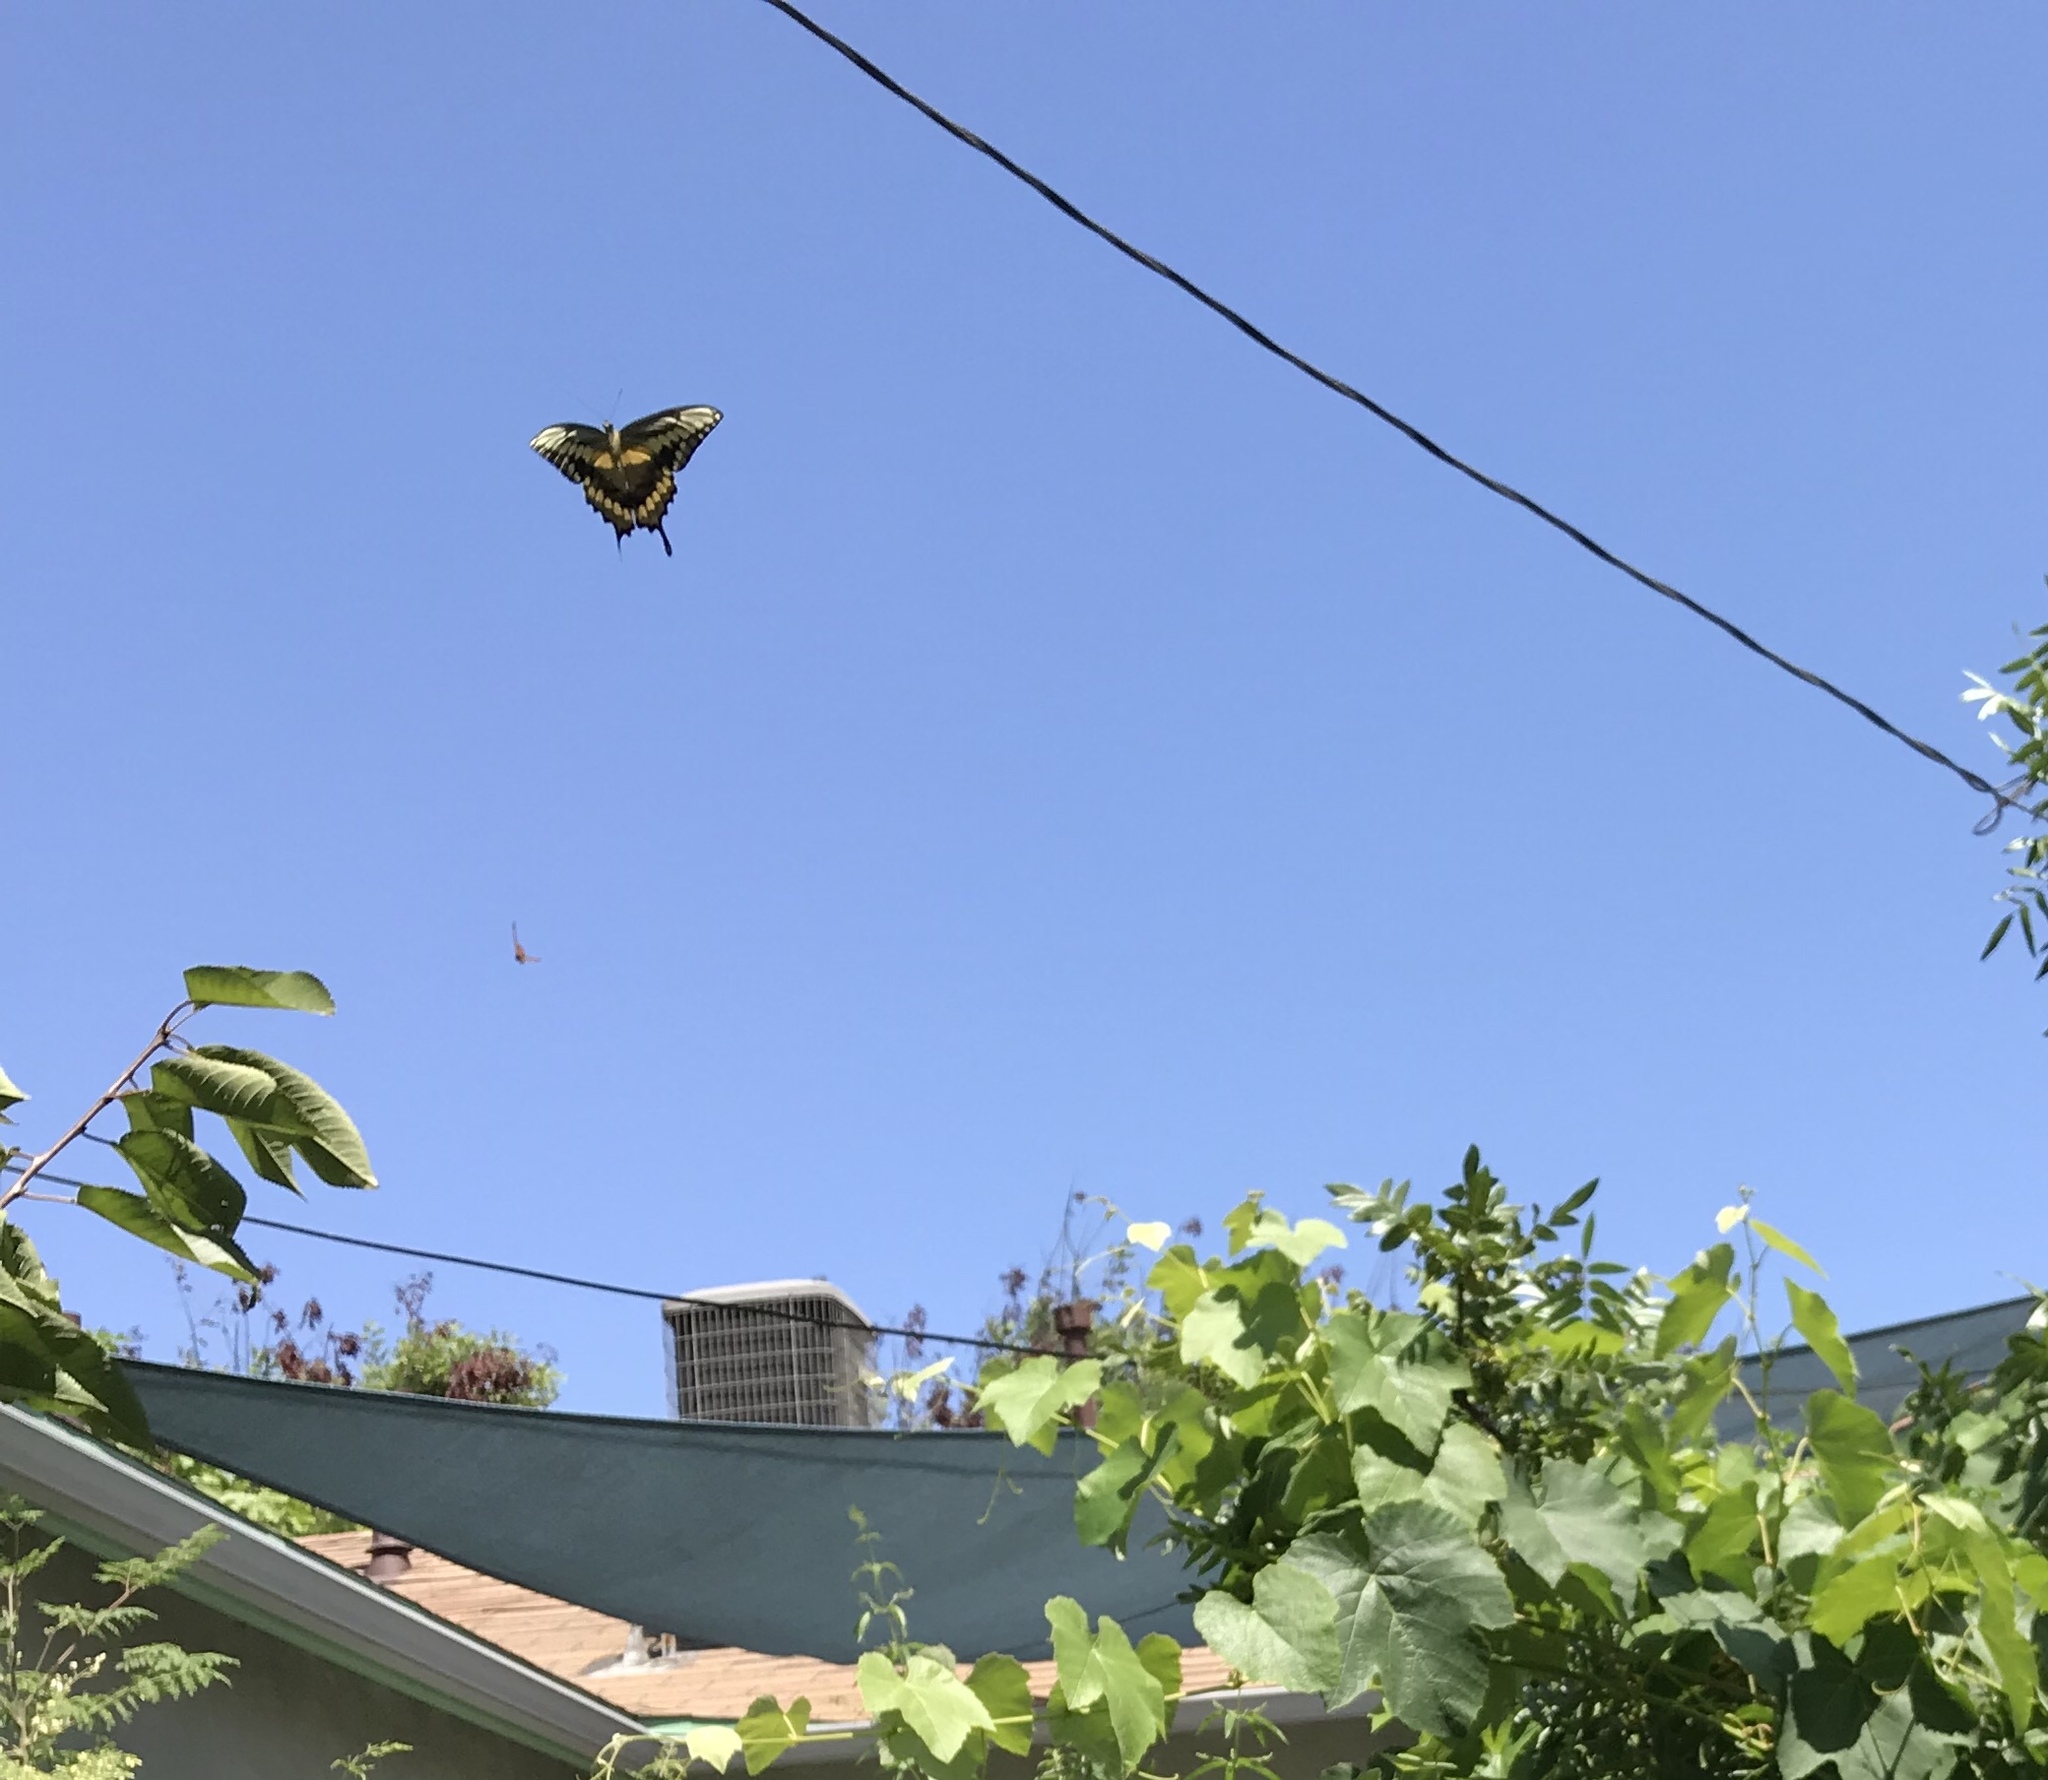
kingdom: Animalia
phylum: Arthropoda
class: Insecta
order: Lepidoptera
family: Papilionidae
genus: Papilio
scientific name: Papilio rumiko
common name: Western giant swallowtail
